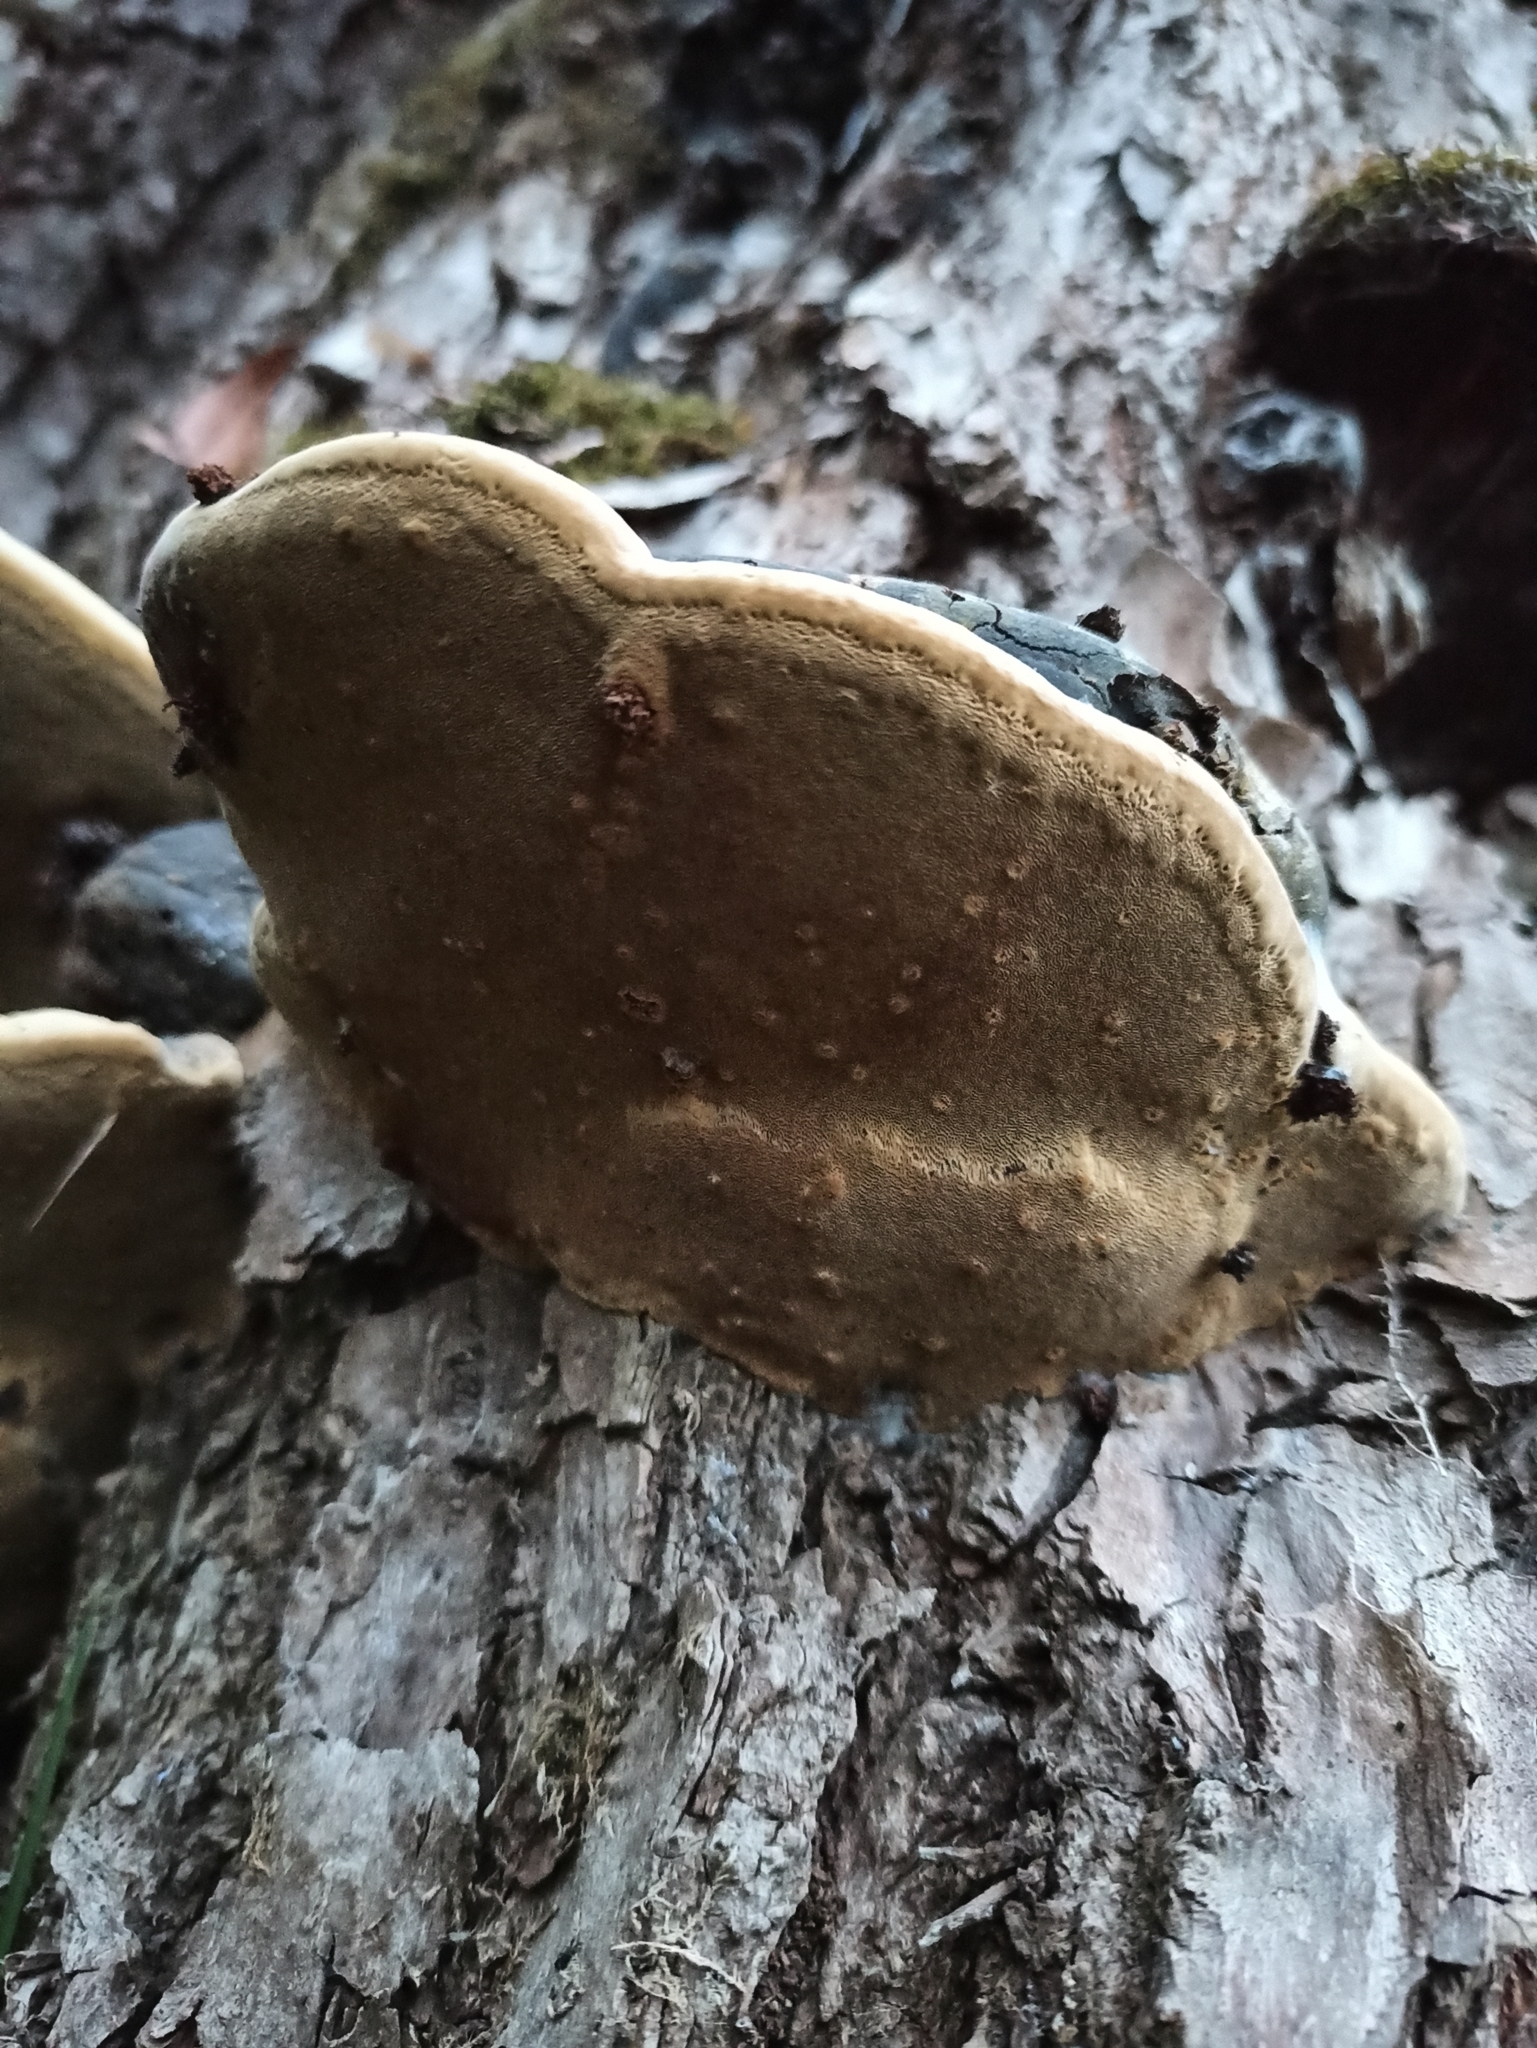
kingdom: Fungi
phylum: Basidiomycota
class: Agaricomycetes
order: Hymenochaetales
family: Hymenochaetaceae
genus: Phellinus
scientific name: Phellinus igniarius
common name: Willow bracket
